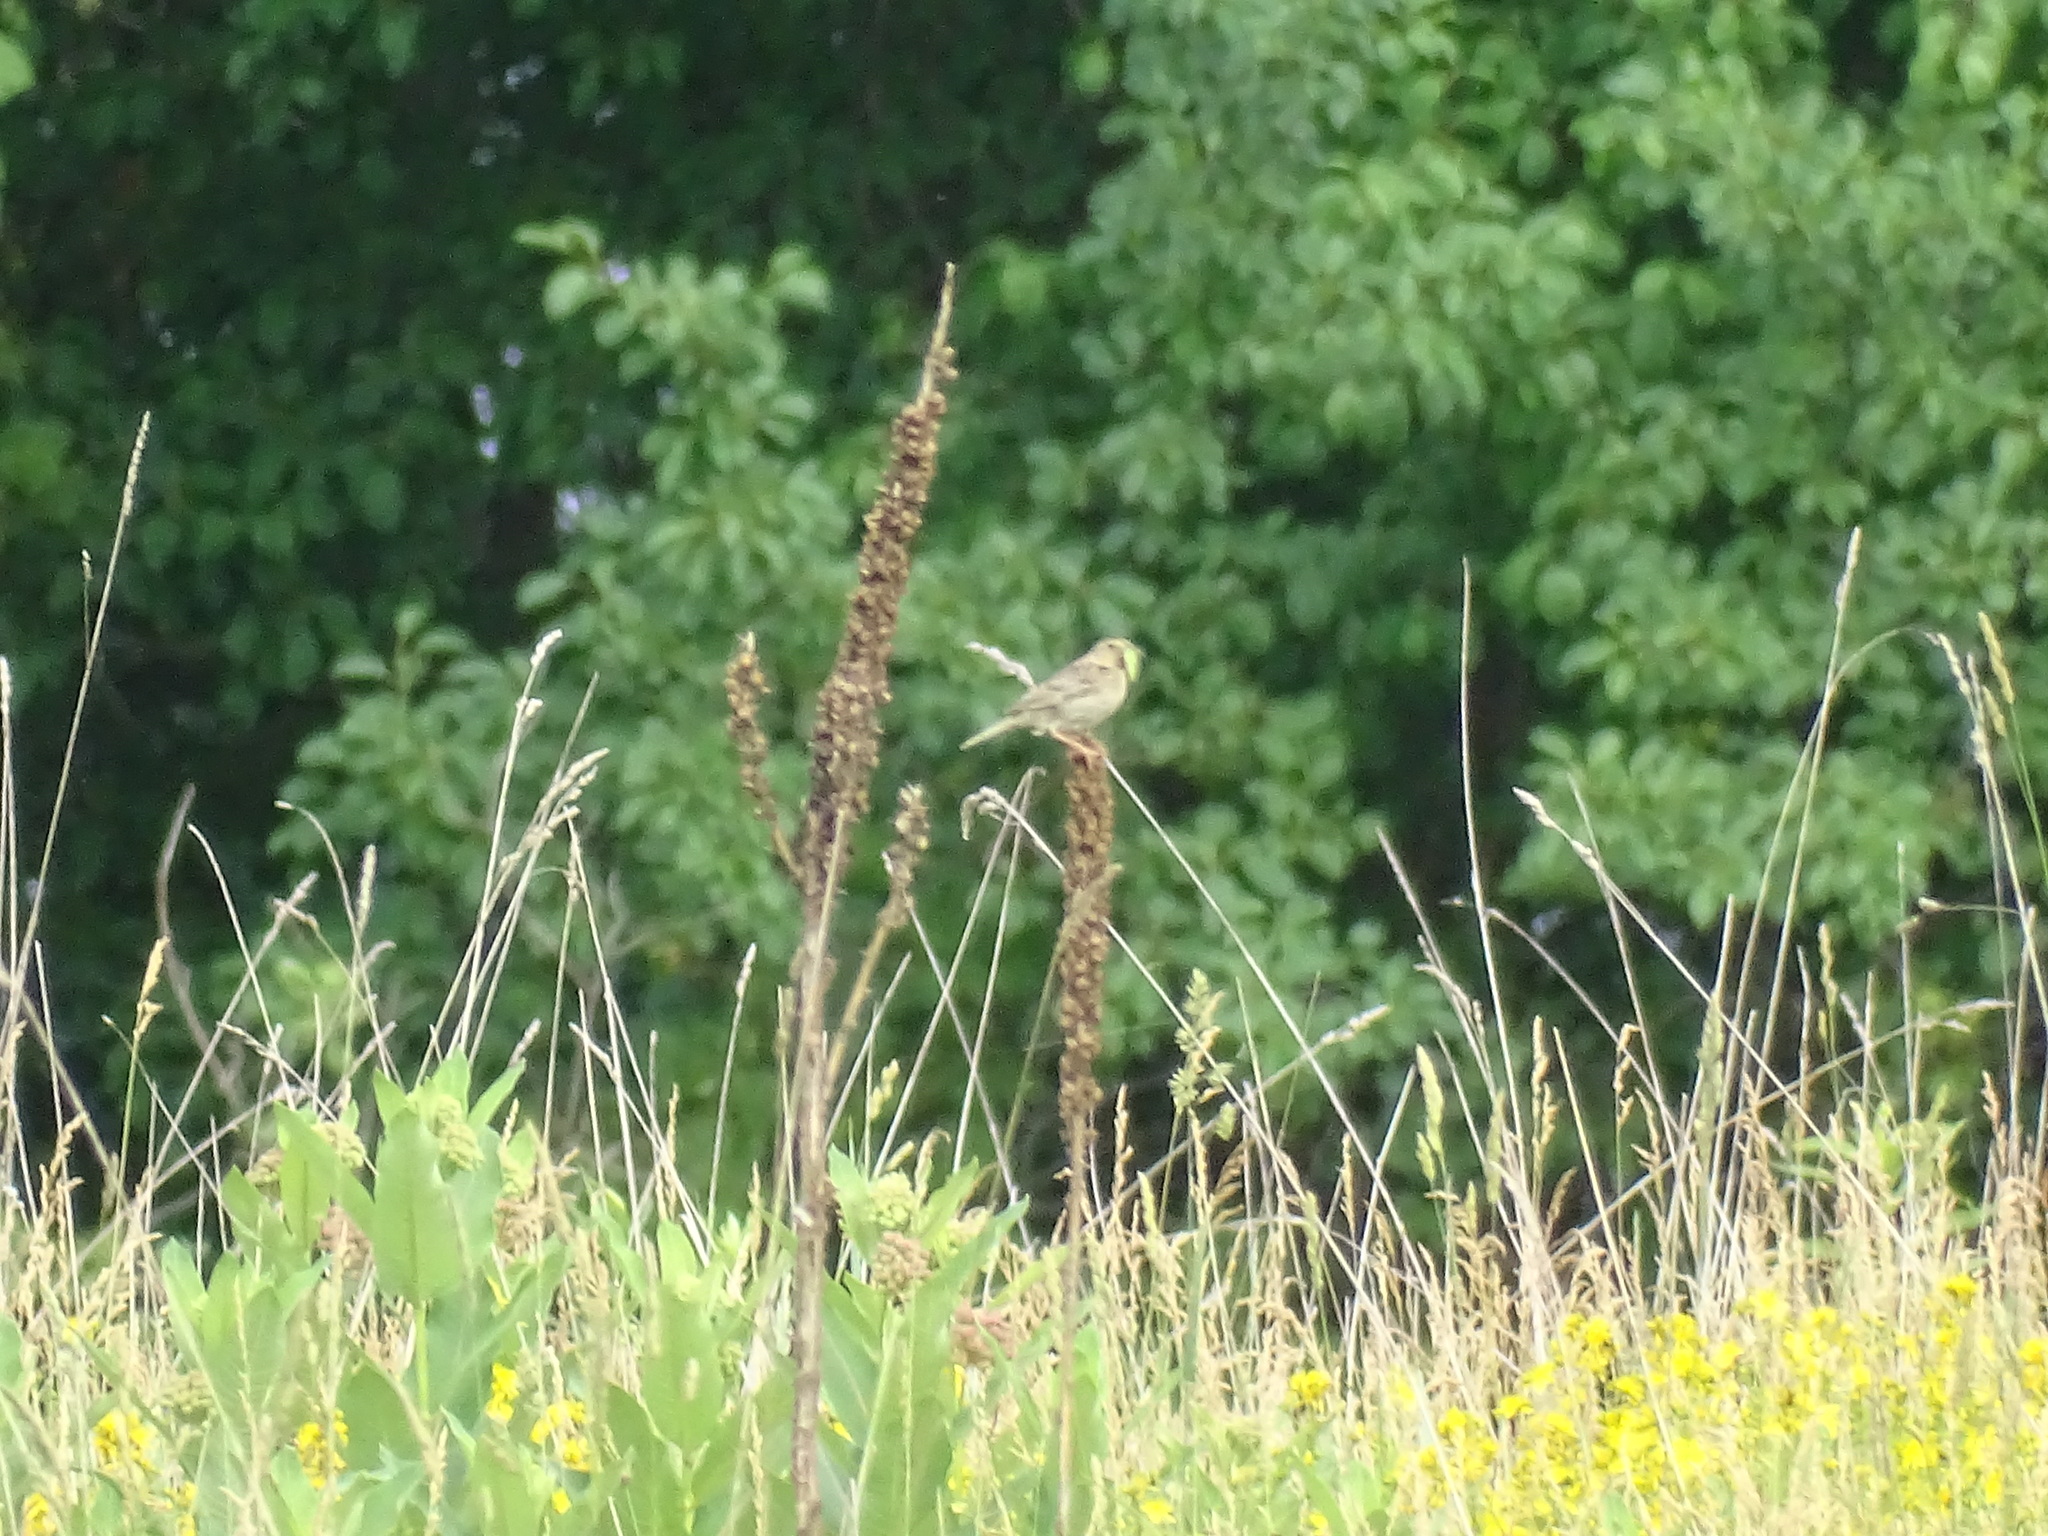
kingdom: Animalia
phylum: Chordata
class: Aves
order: Passeriformes
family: Passerellidae
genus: Ammodramus
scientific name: Ammodramus savannarum
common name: Grasshopper sparrow
